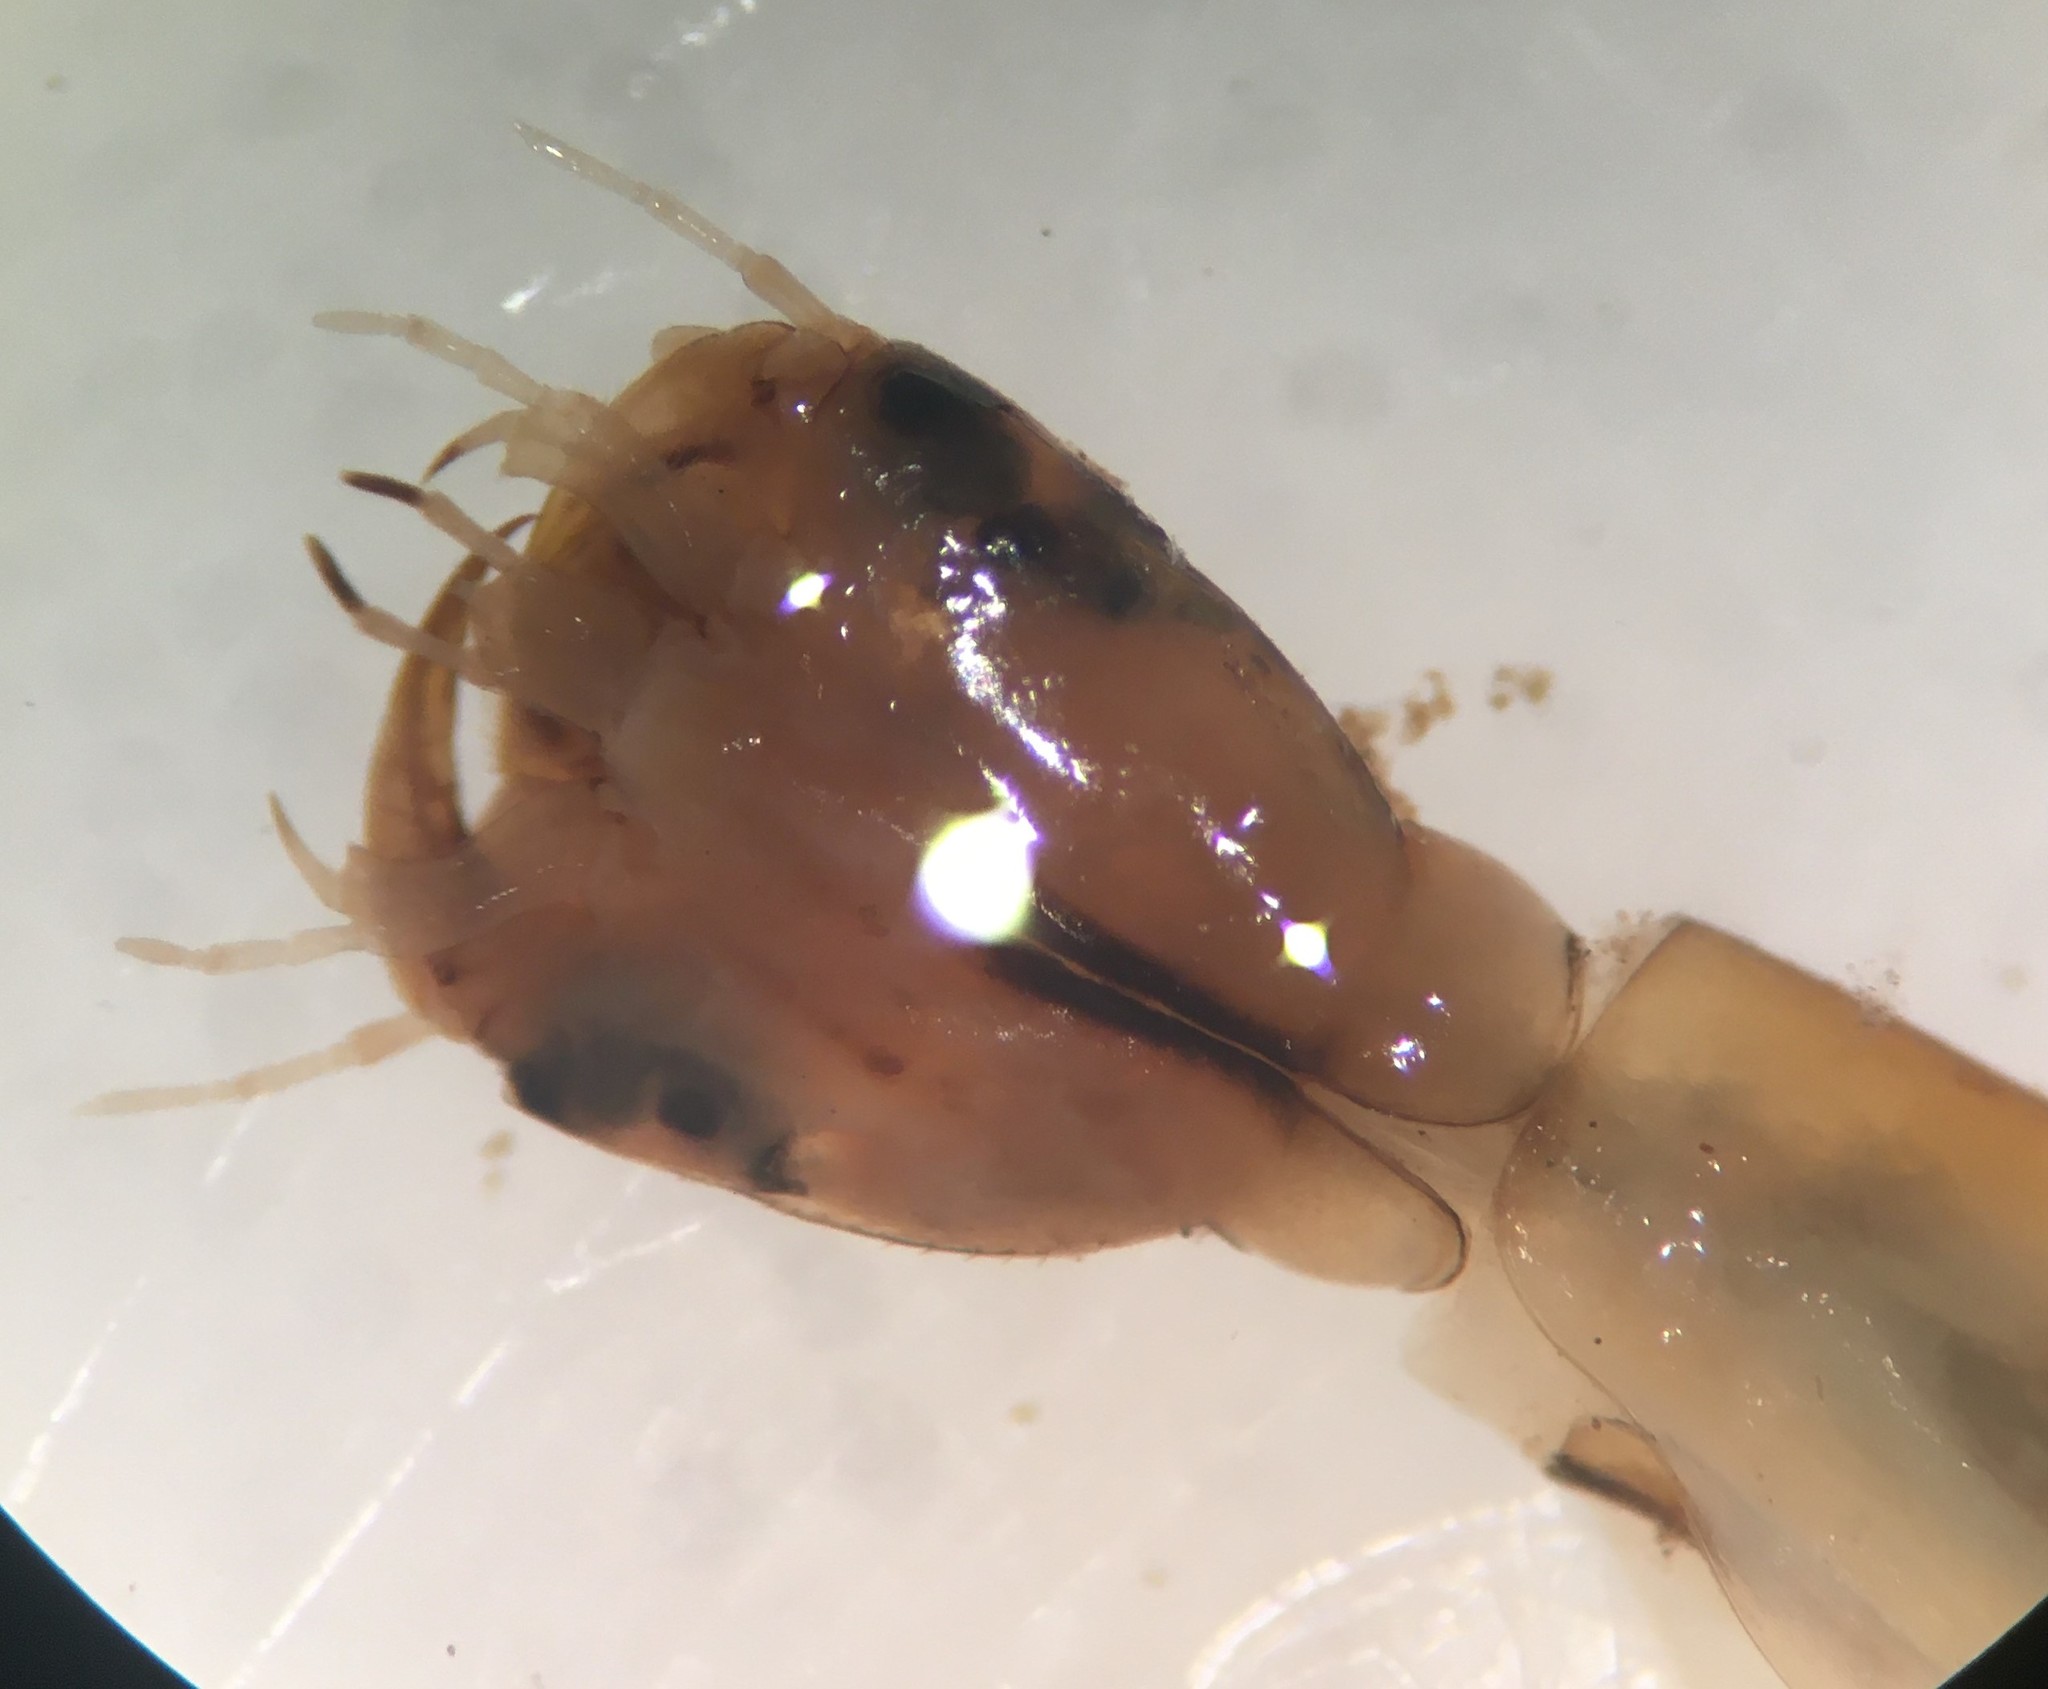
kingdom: Animalia
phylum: Arthropoda
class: Insecta
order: Coleoptera
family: Dytiscidae
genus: Thermonectus
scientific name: Thermonectus basillaris
